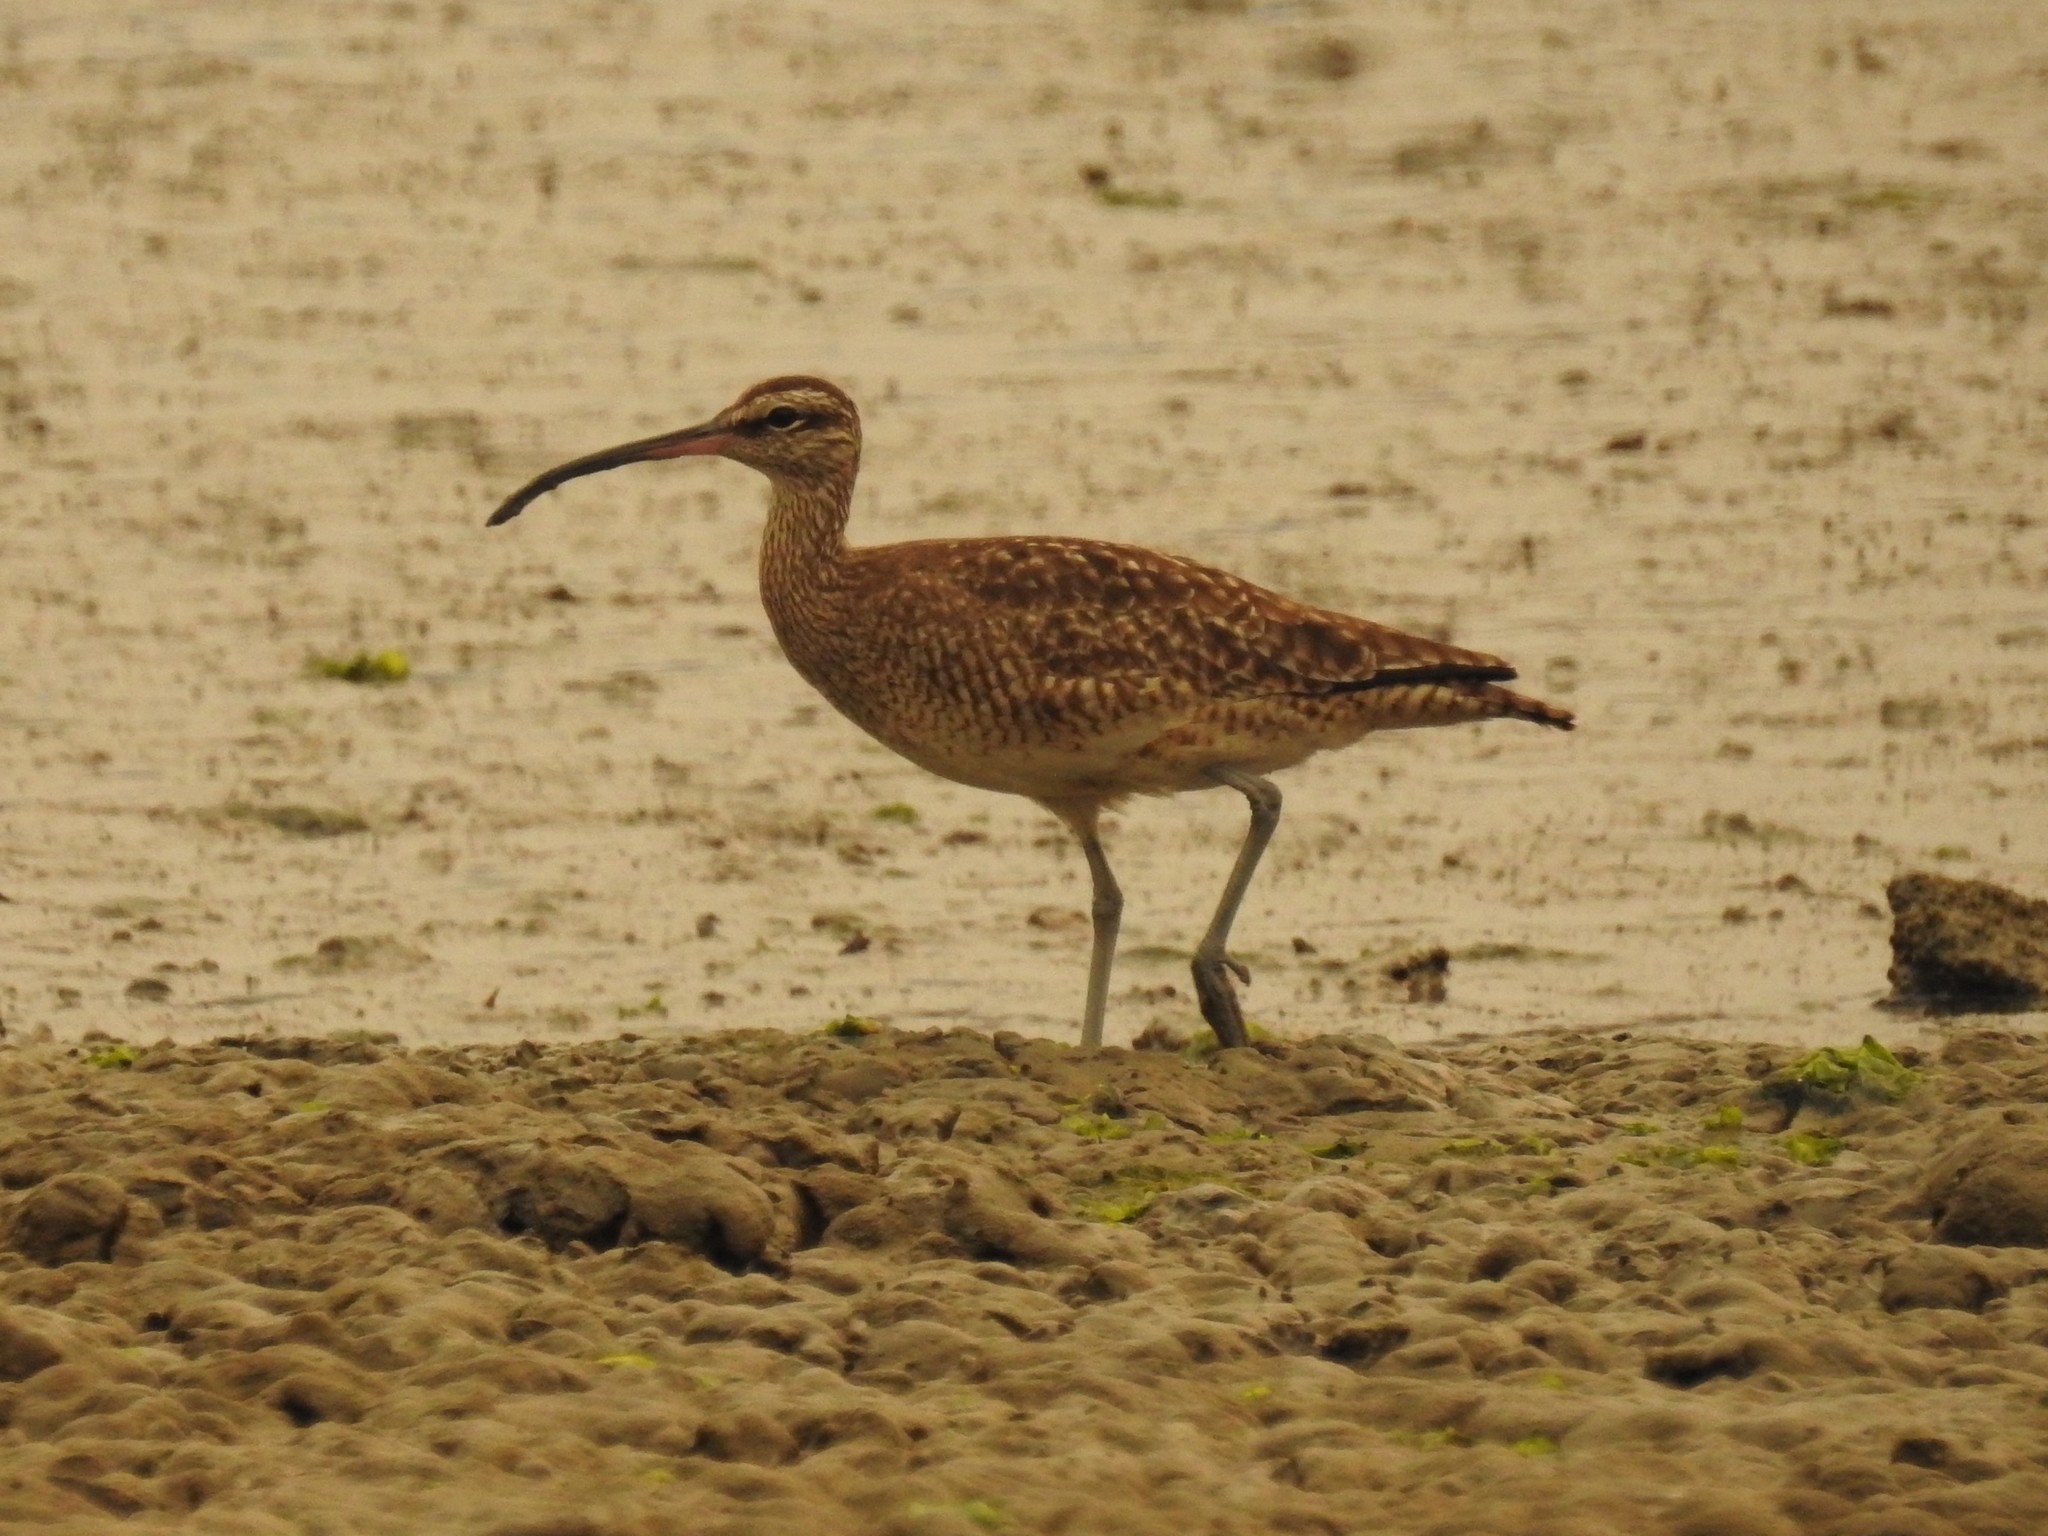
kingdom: Animalia
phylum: Chordata
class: Aves
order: Charadriiformes
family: Scolopacidae
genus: Numenius
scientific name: Numenius phaeopus
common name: Whimbrel
